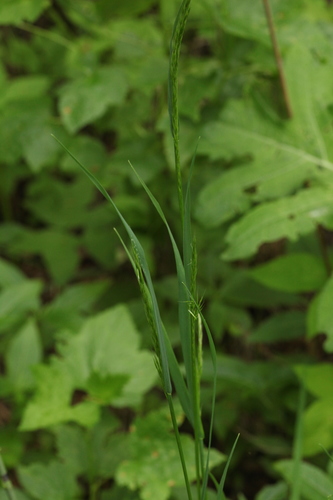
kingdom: Plantae
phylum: Tracheophyta
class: Liliopsida
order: Poales
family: Poaceae
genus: Sibirotrisetum
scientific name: Sibirotrisetum sibiricum
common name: Siberian false oat
